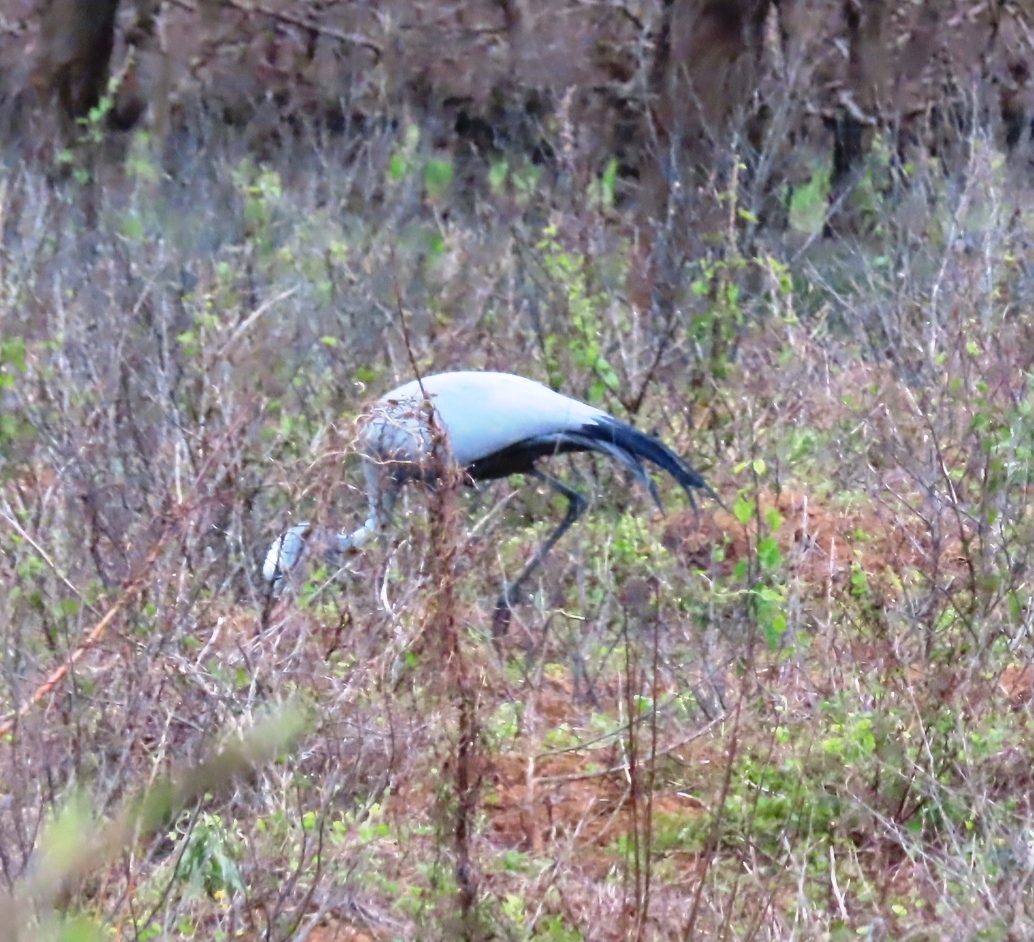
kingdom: Animalia
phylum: Chordata
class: Aves
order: Gruiformes
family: Gruidae
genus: Anthropoides
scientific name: Anthropoides paradiseus
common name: Blue crane
